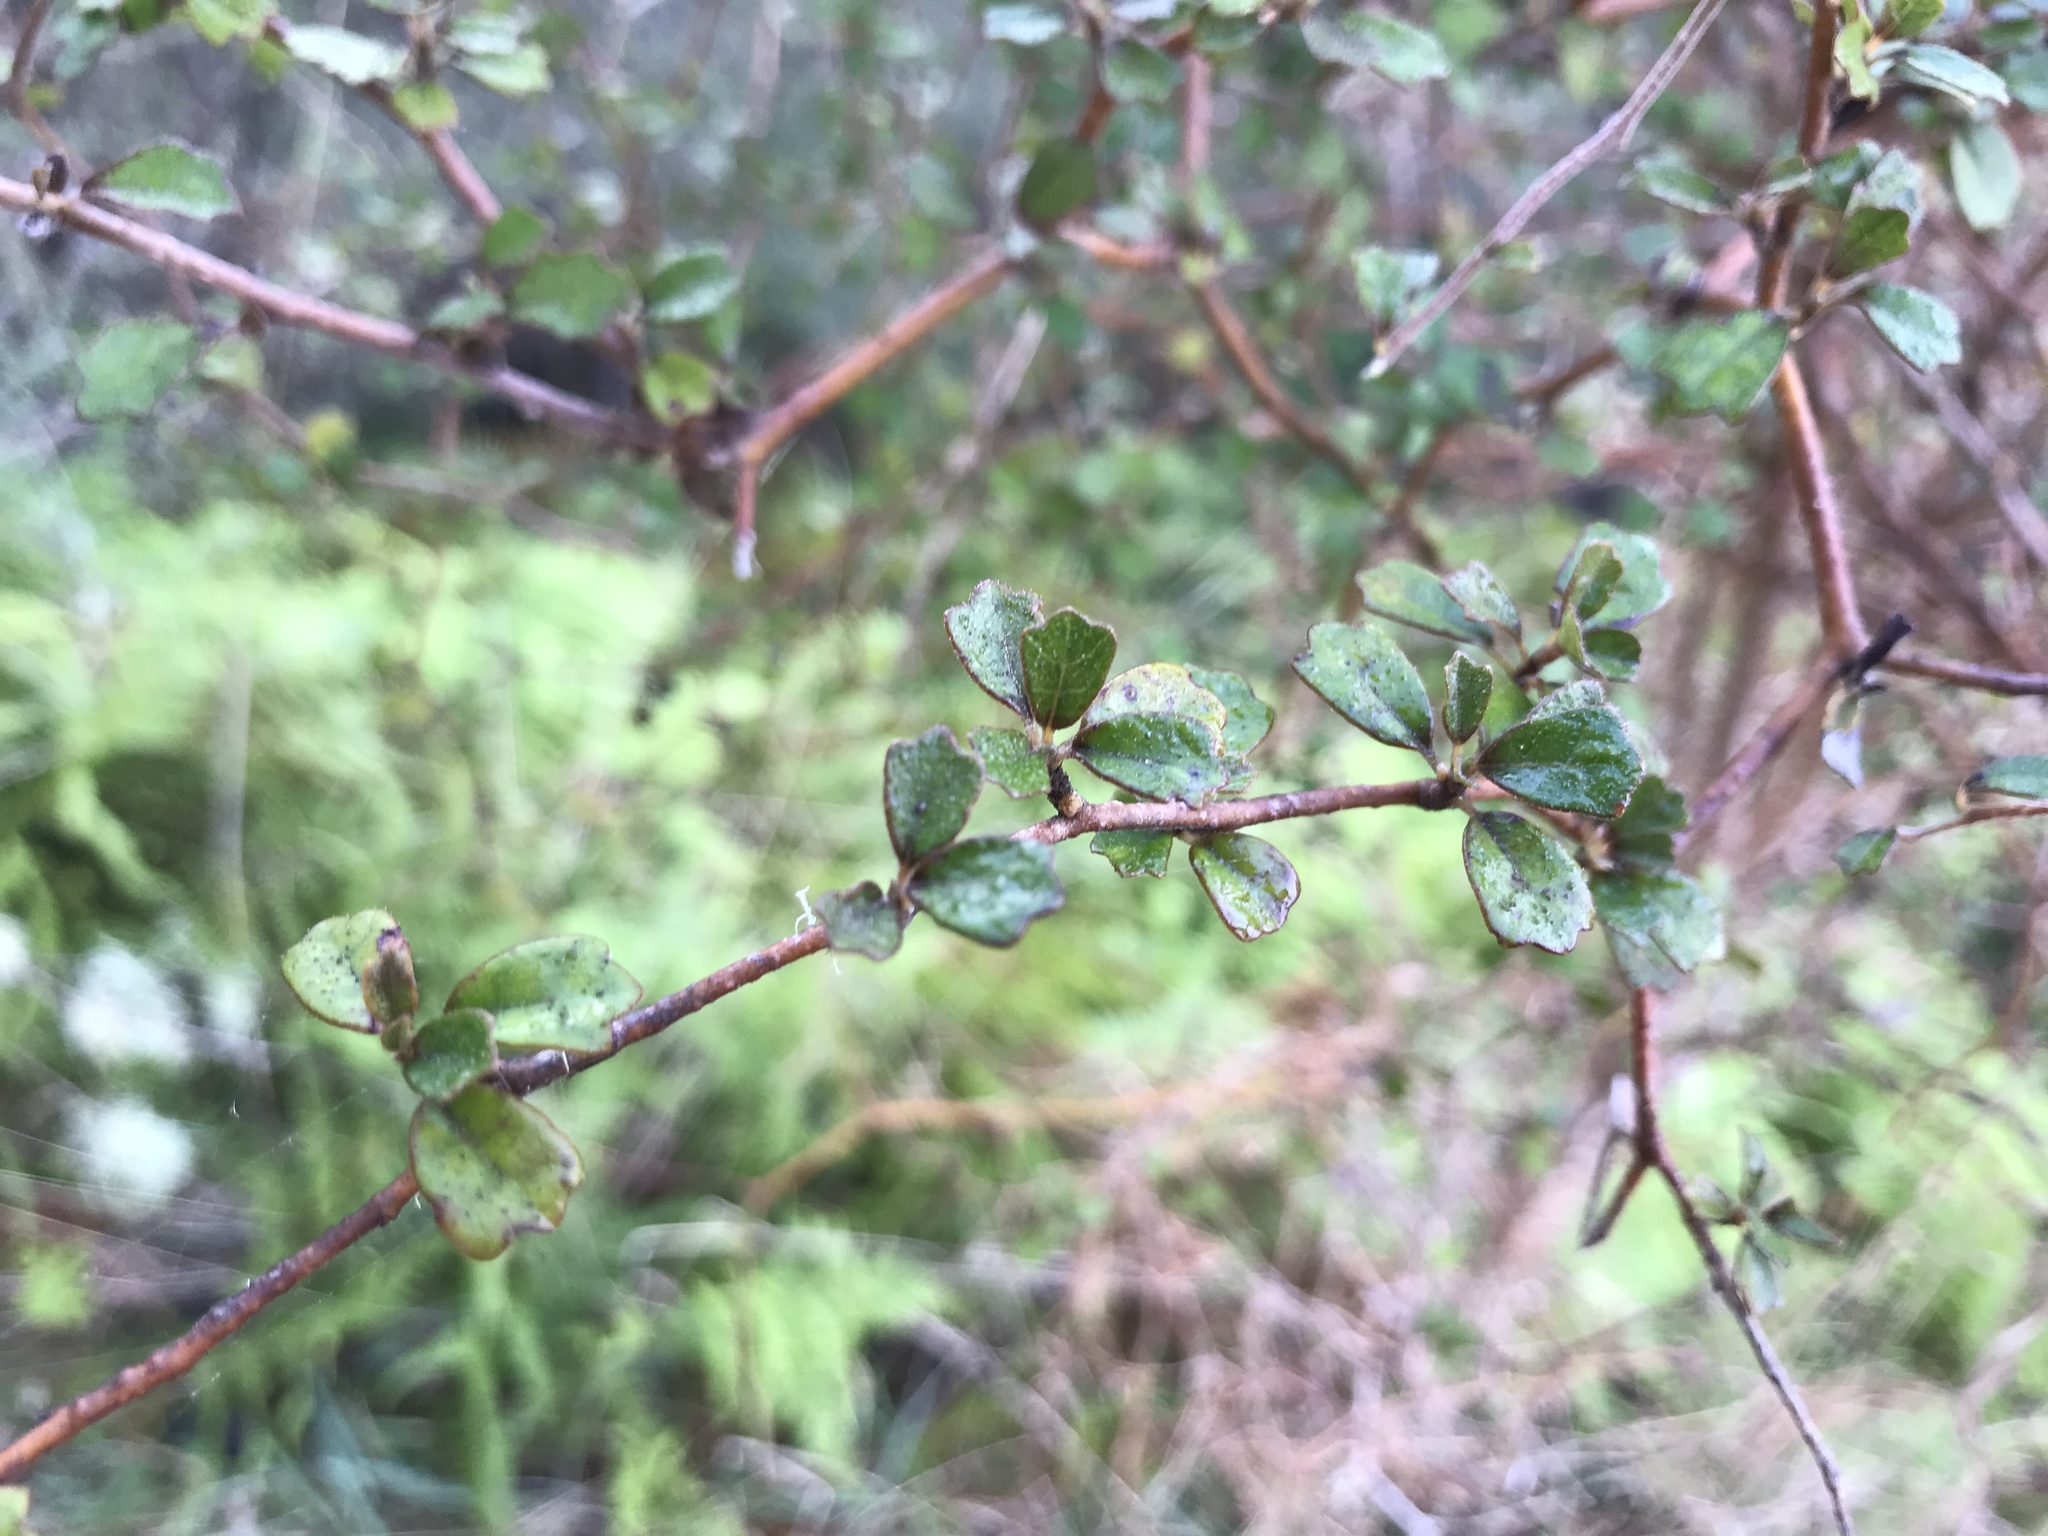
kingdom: Plantae
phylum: Tracheophyta
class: Magnoliopsida
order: Apiales
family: Pennantiaceae
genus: Pennantia
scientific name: Pennantia corymbosa
